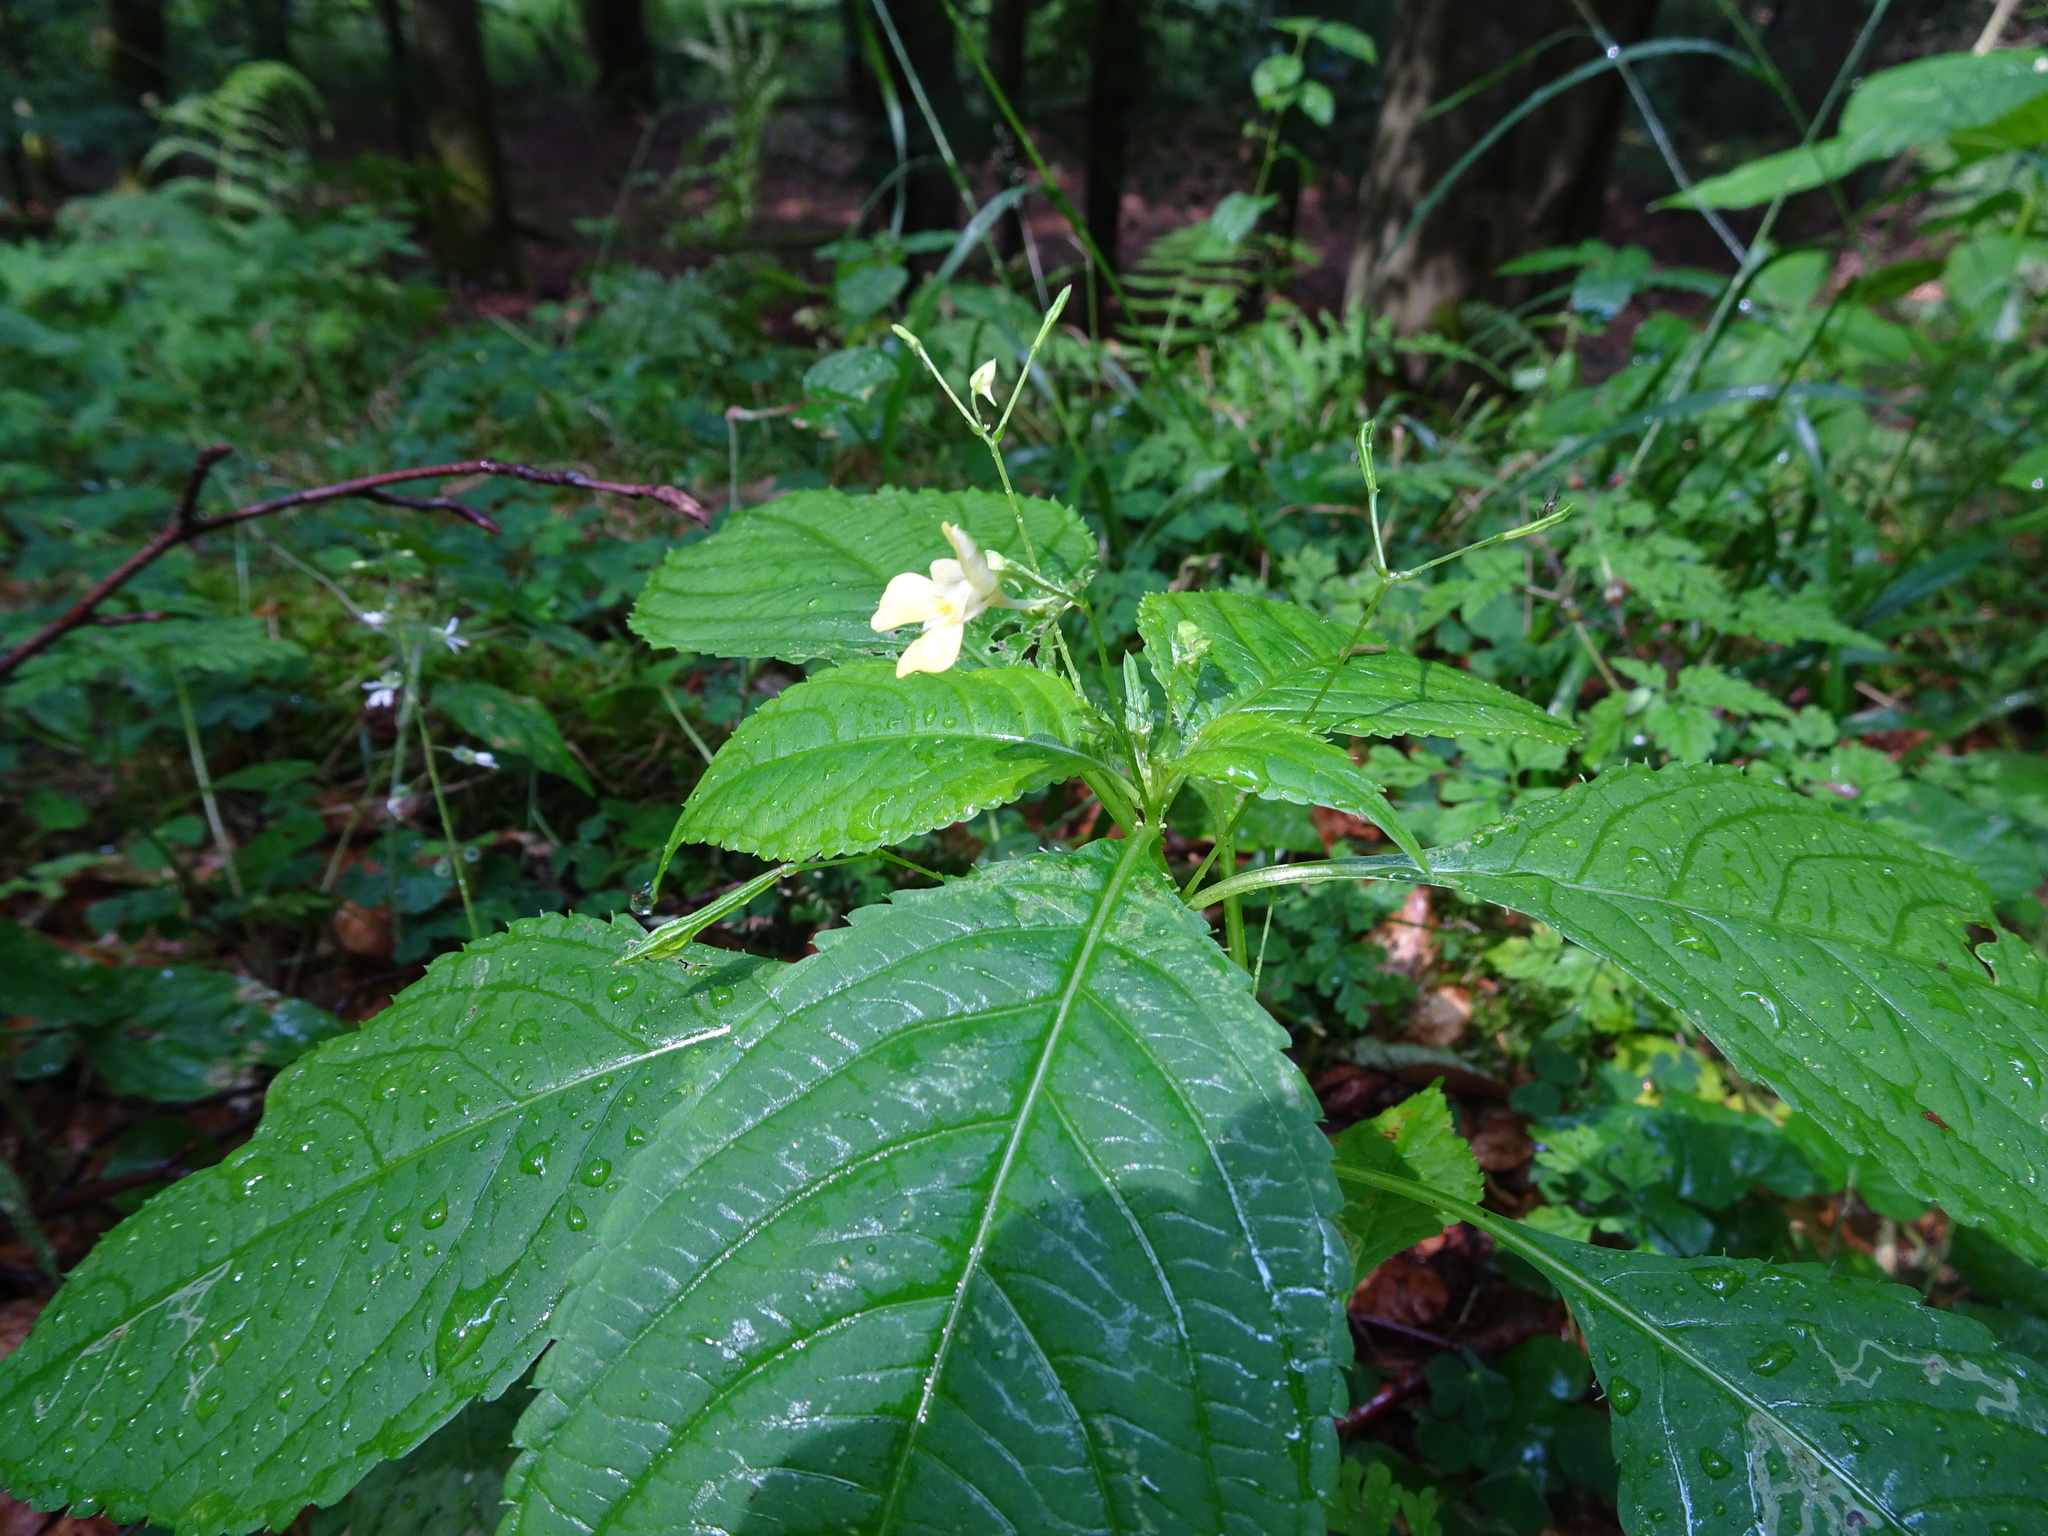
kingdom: Plantae
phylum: Tracheophyta
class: Magnoliopsida
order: Ericales
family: Balsaminaceae
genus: Impatiens
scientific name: Impatiens parviflora
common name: Small balsam
